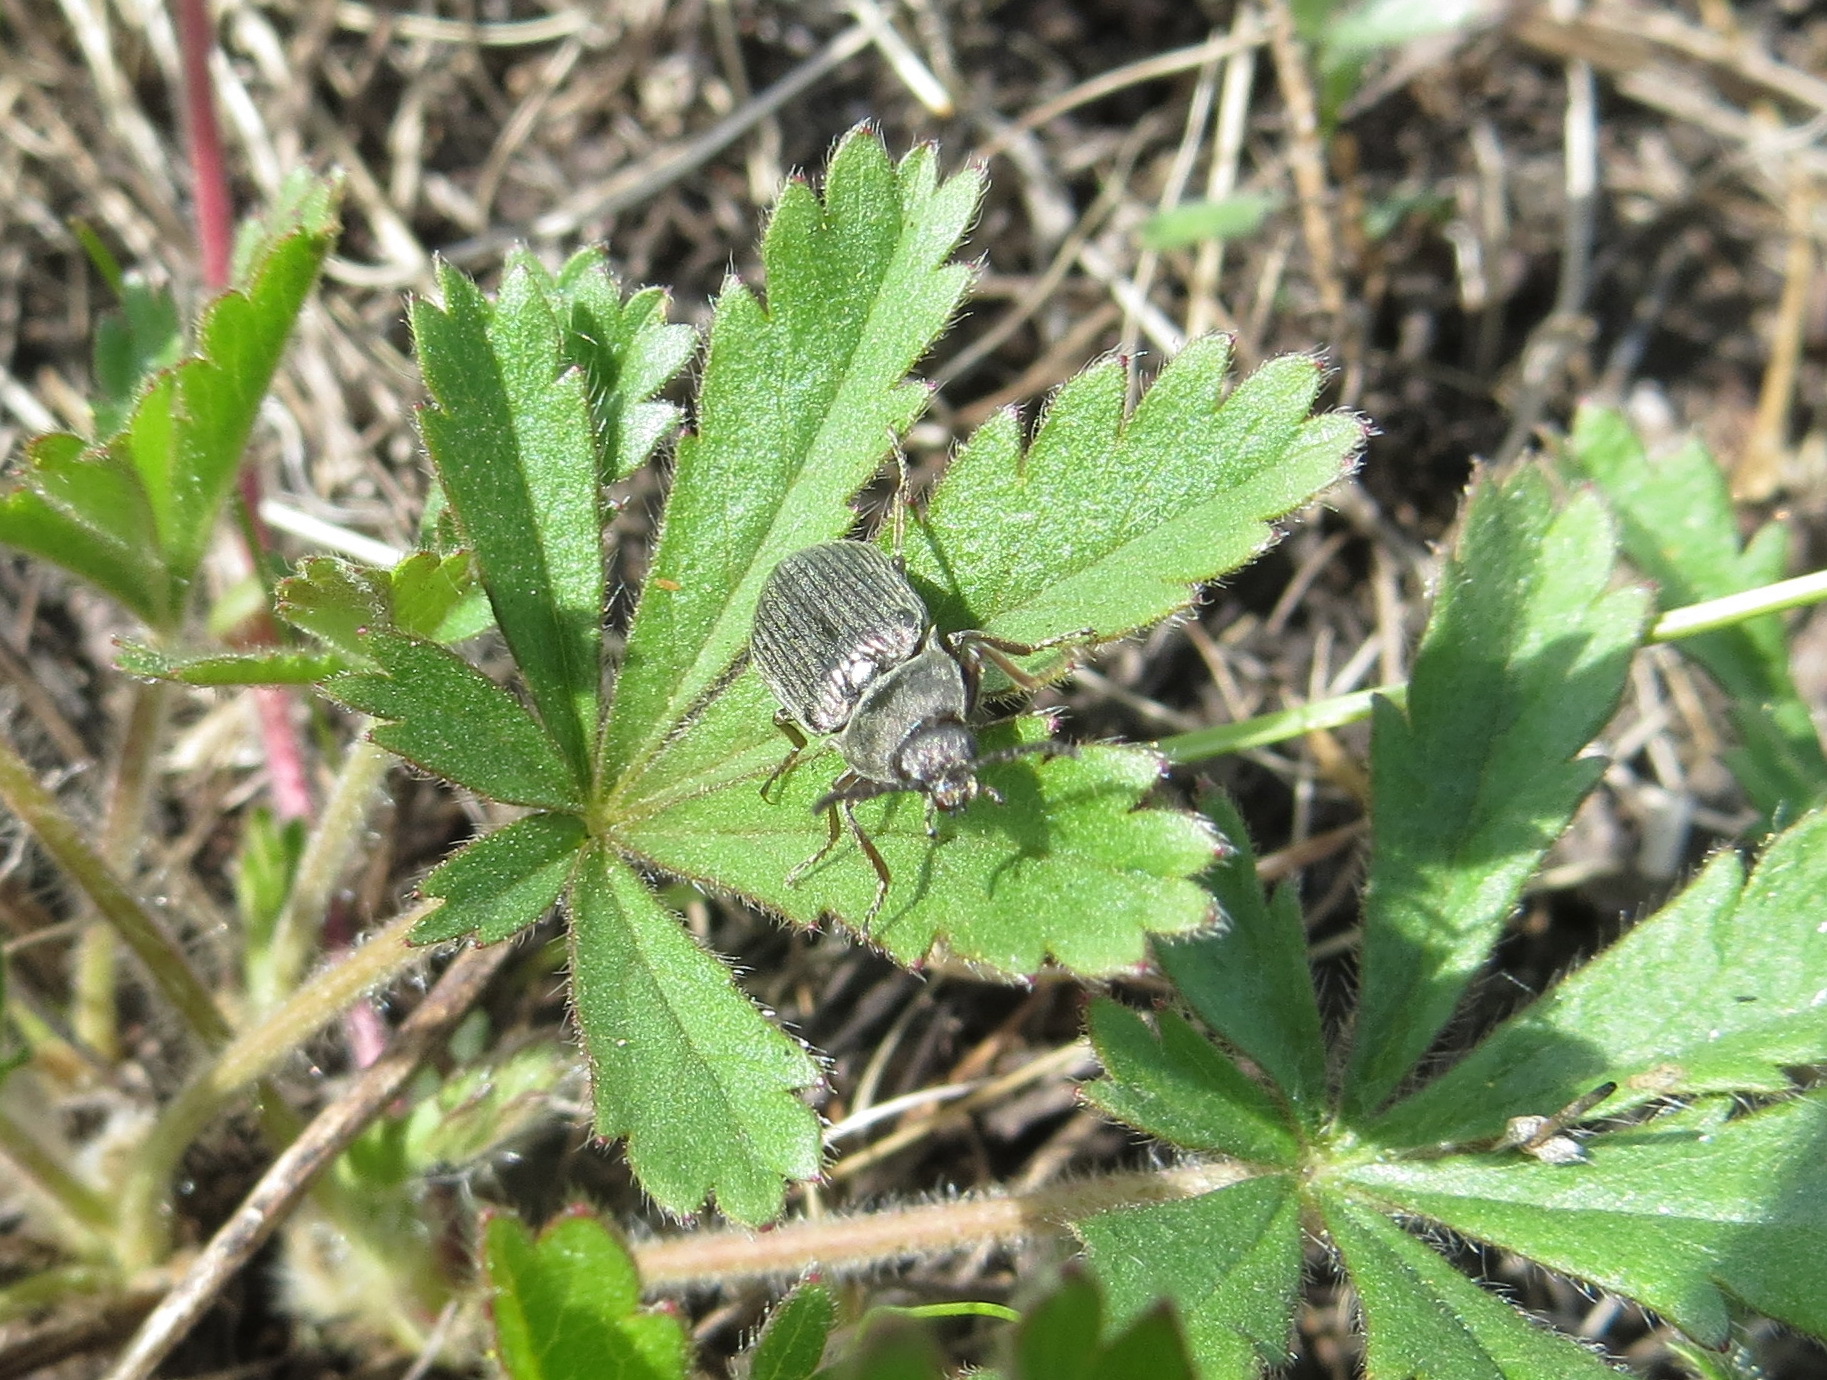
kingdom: Animalia
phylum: Arthropoda
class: Insecta
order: Coleoptera
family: Elateridae
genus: Selatosomus
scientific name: Selatosomus latus
